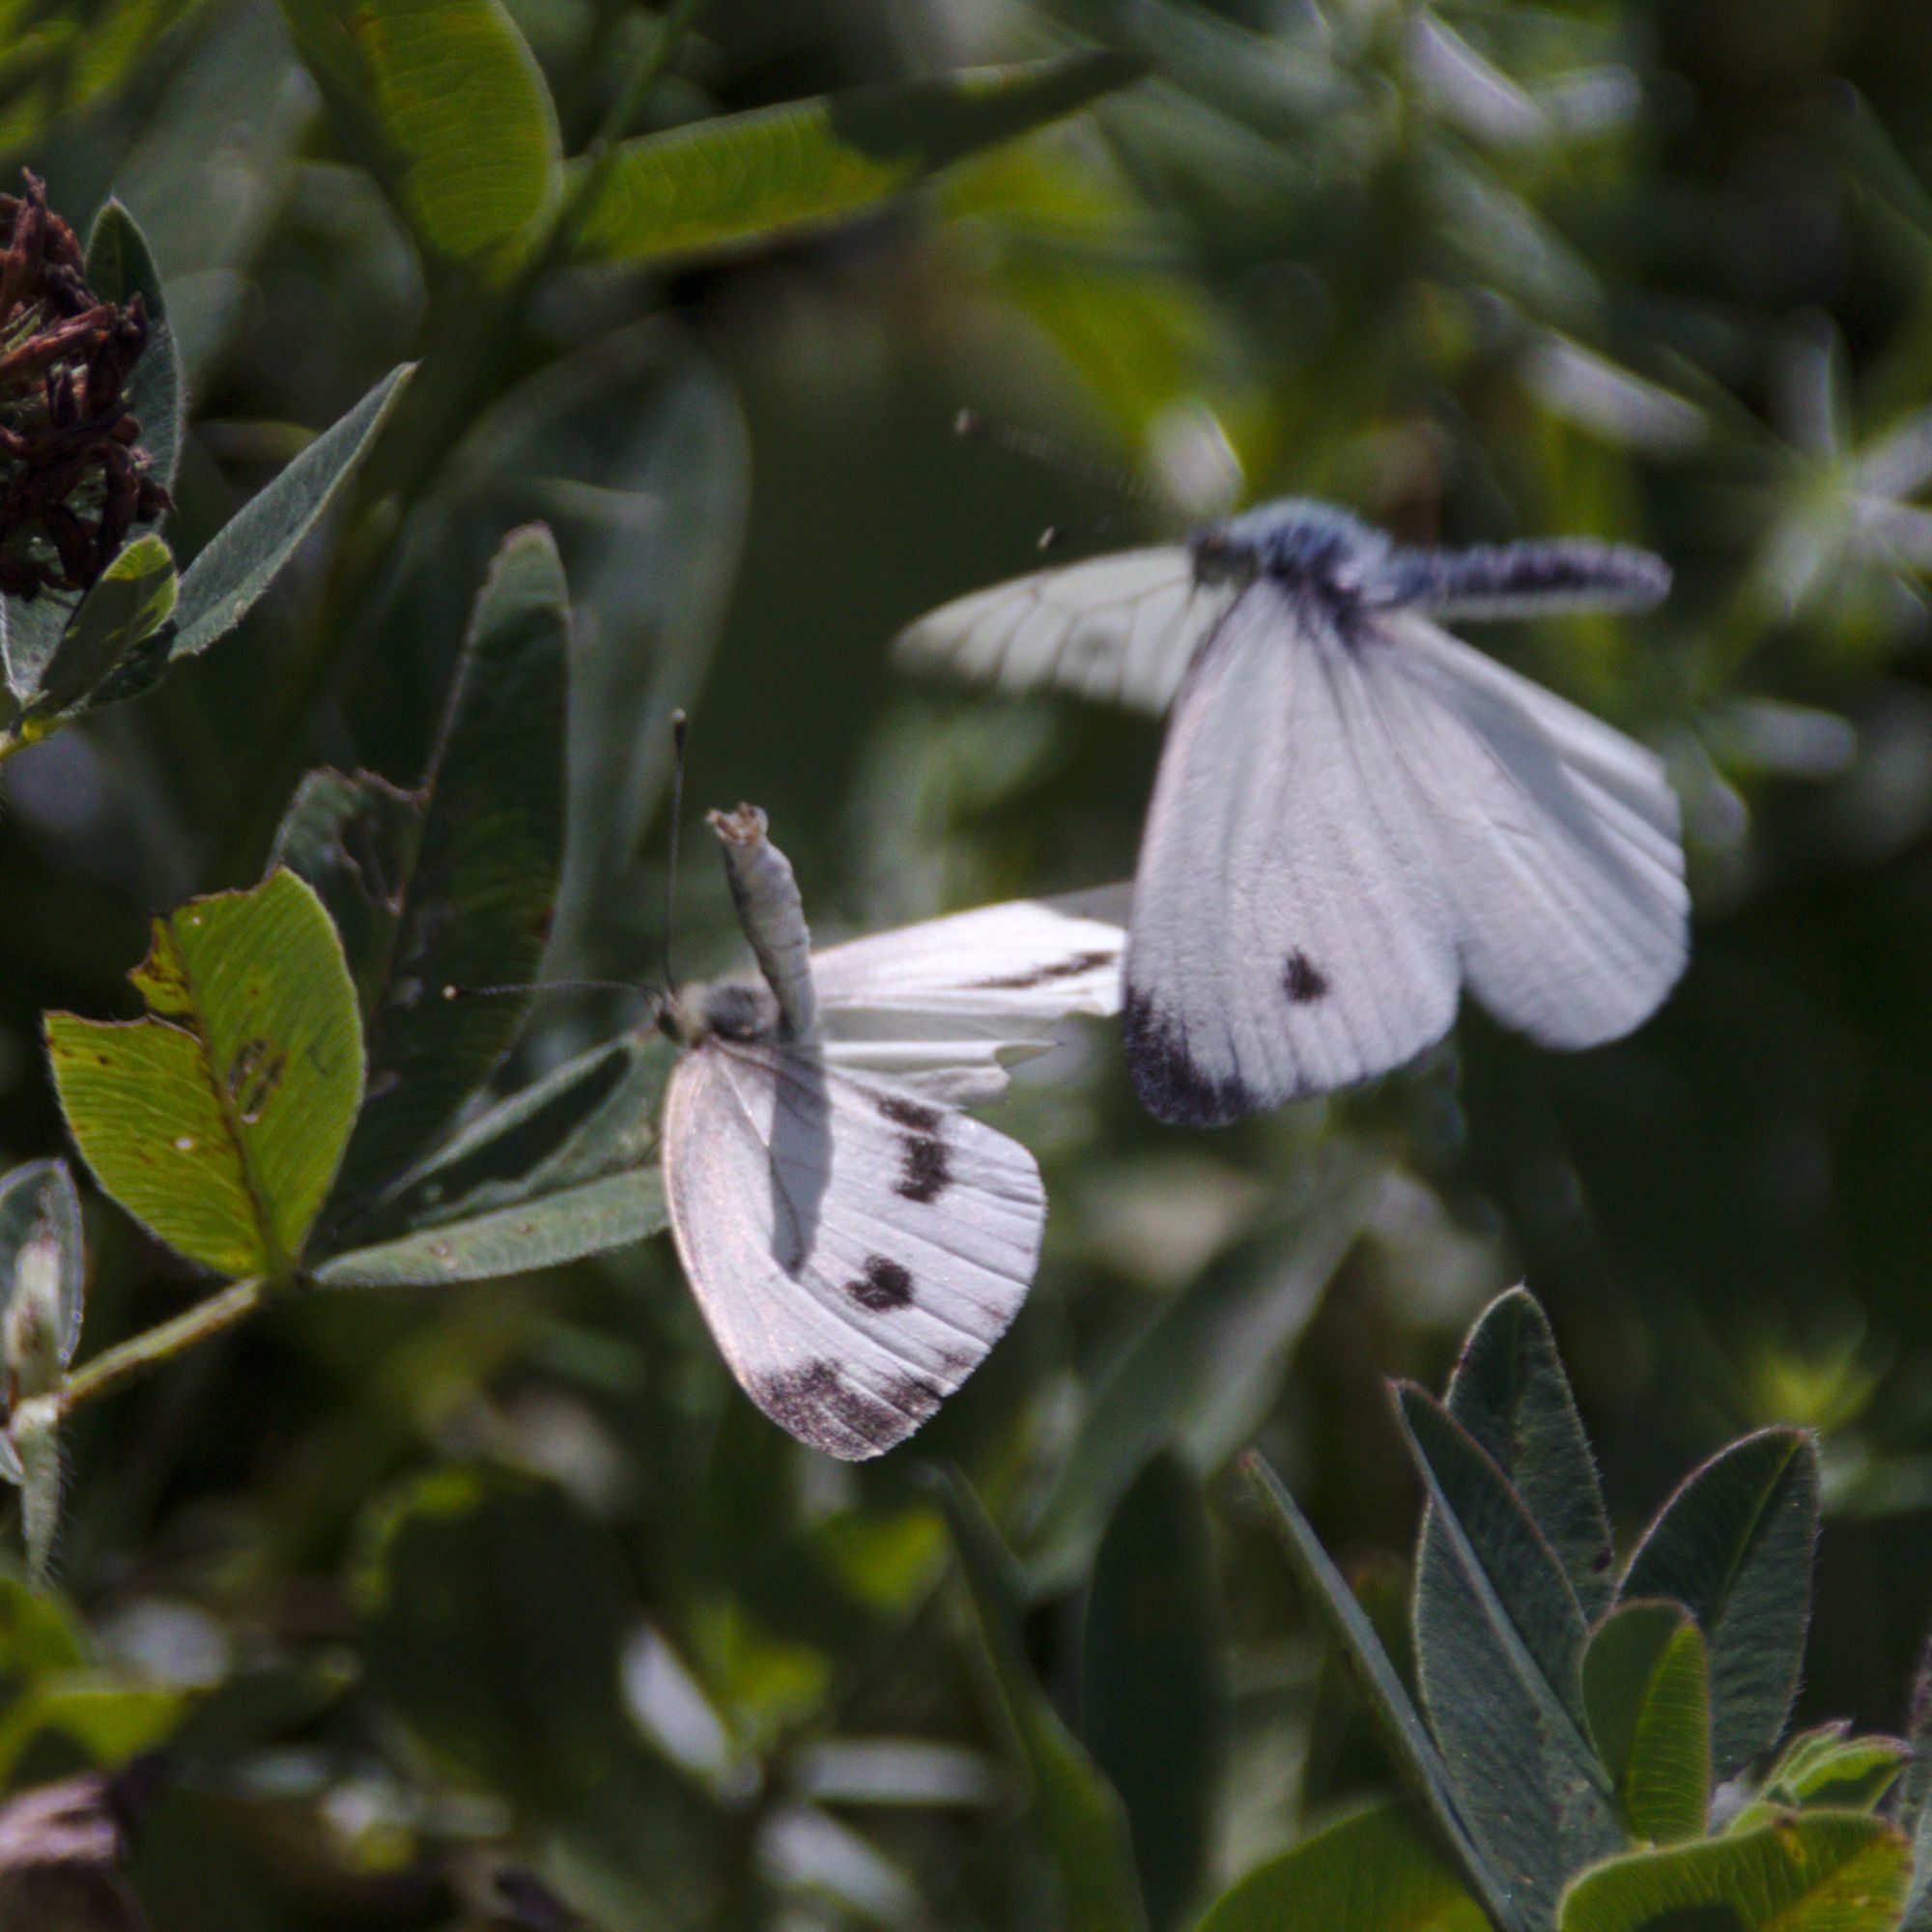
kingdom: Animalia
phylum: Arthropoda
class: Insecta
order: Lepidoptera
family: Pieridae
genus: Pieris
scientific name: Pieris napi
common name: Green-veined white
